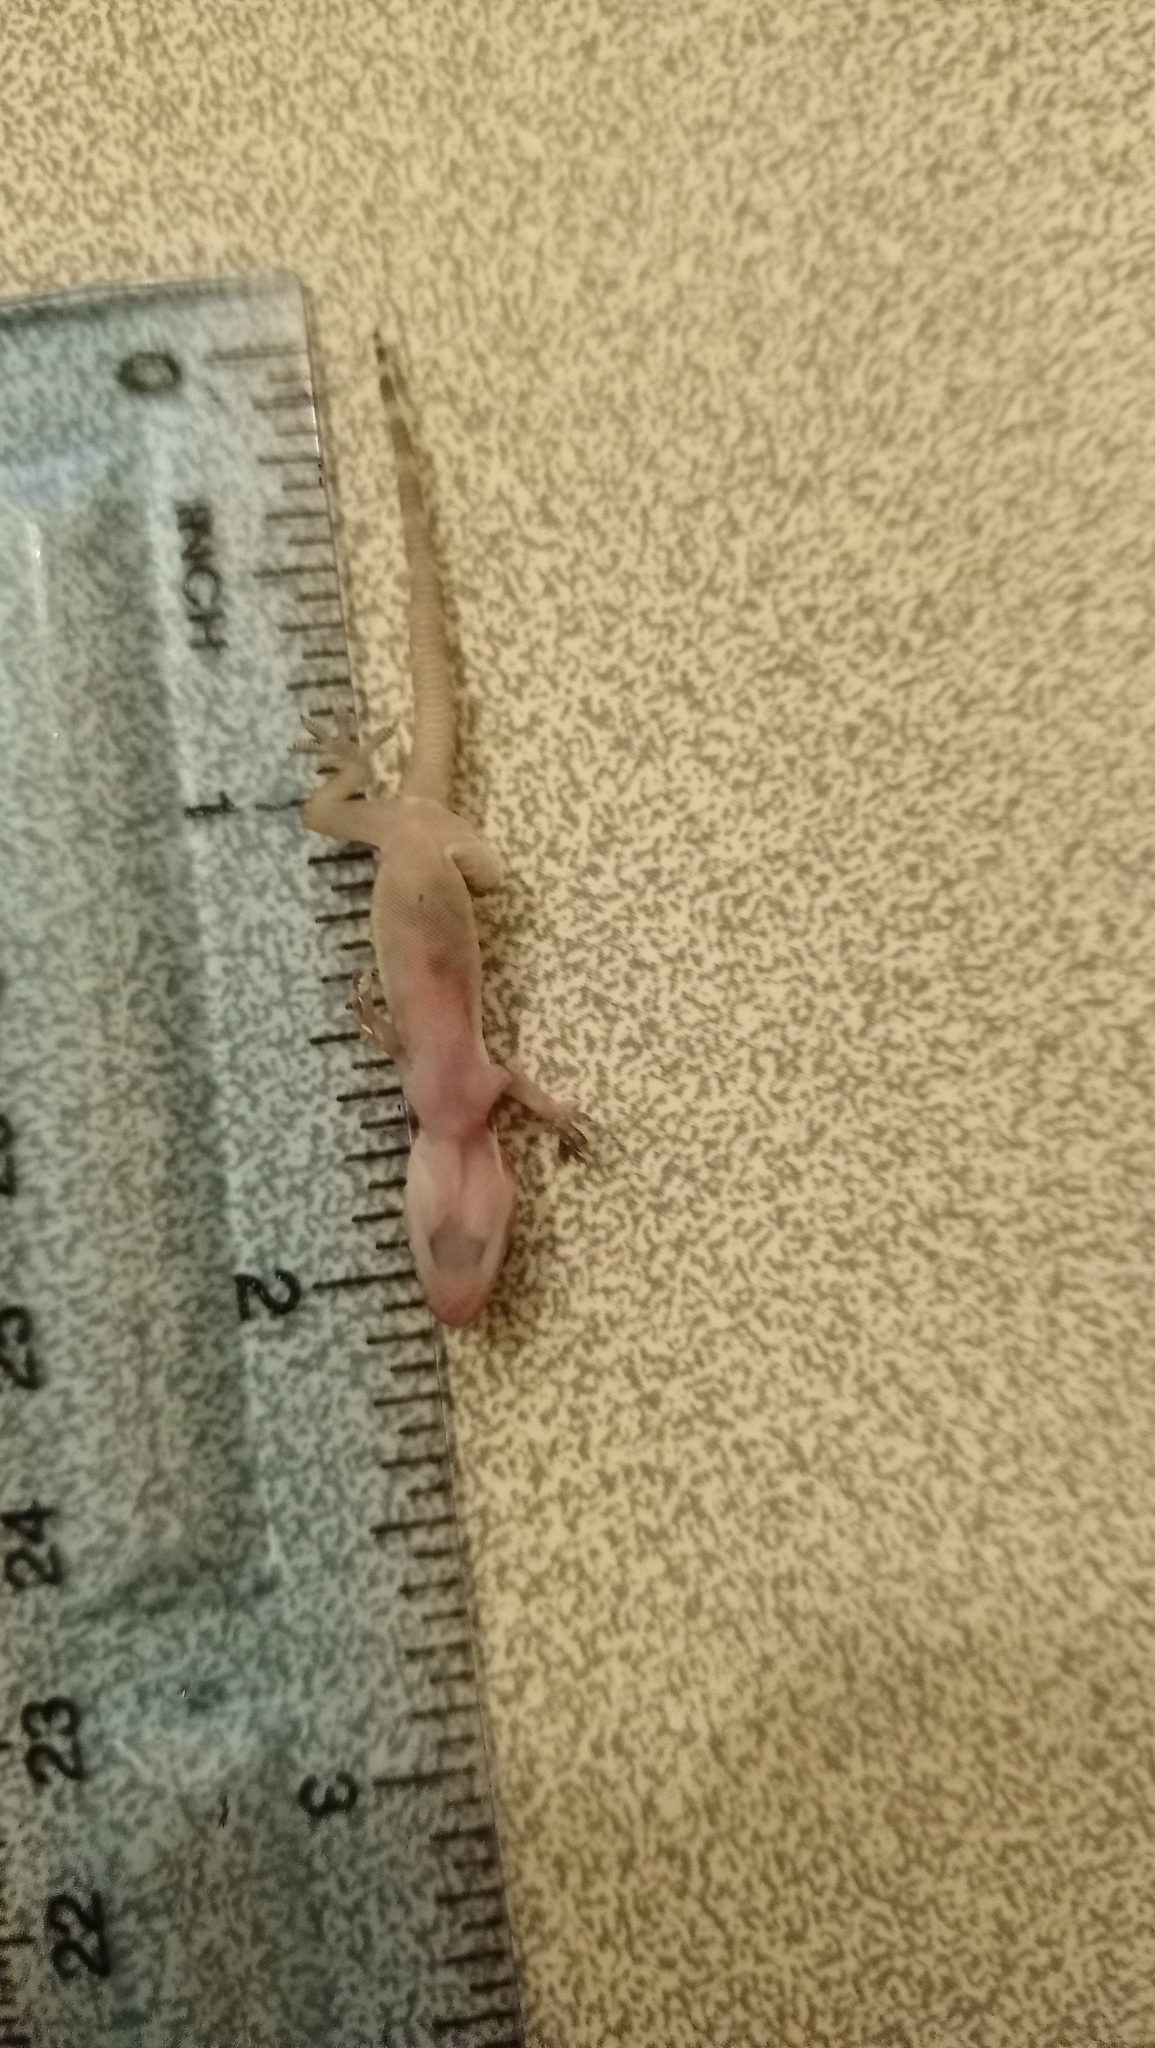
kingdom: Animalia
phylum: Chordata
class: Squamata
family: Gekkonidae
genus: Hemidactylus
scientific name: Hemidactylus turcicus
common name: Turkish gecko
